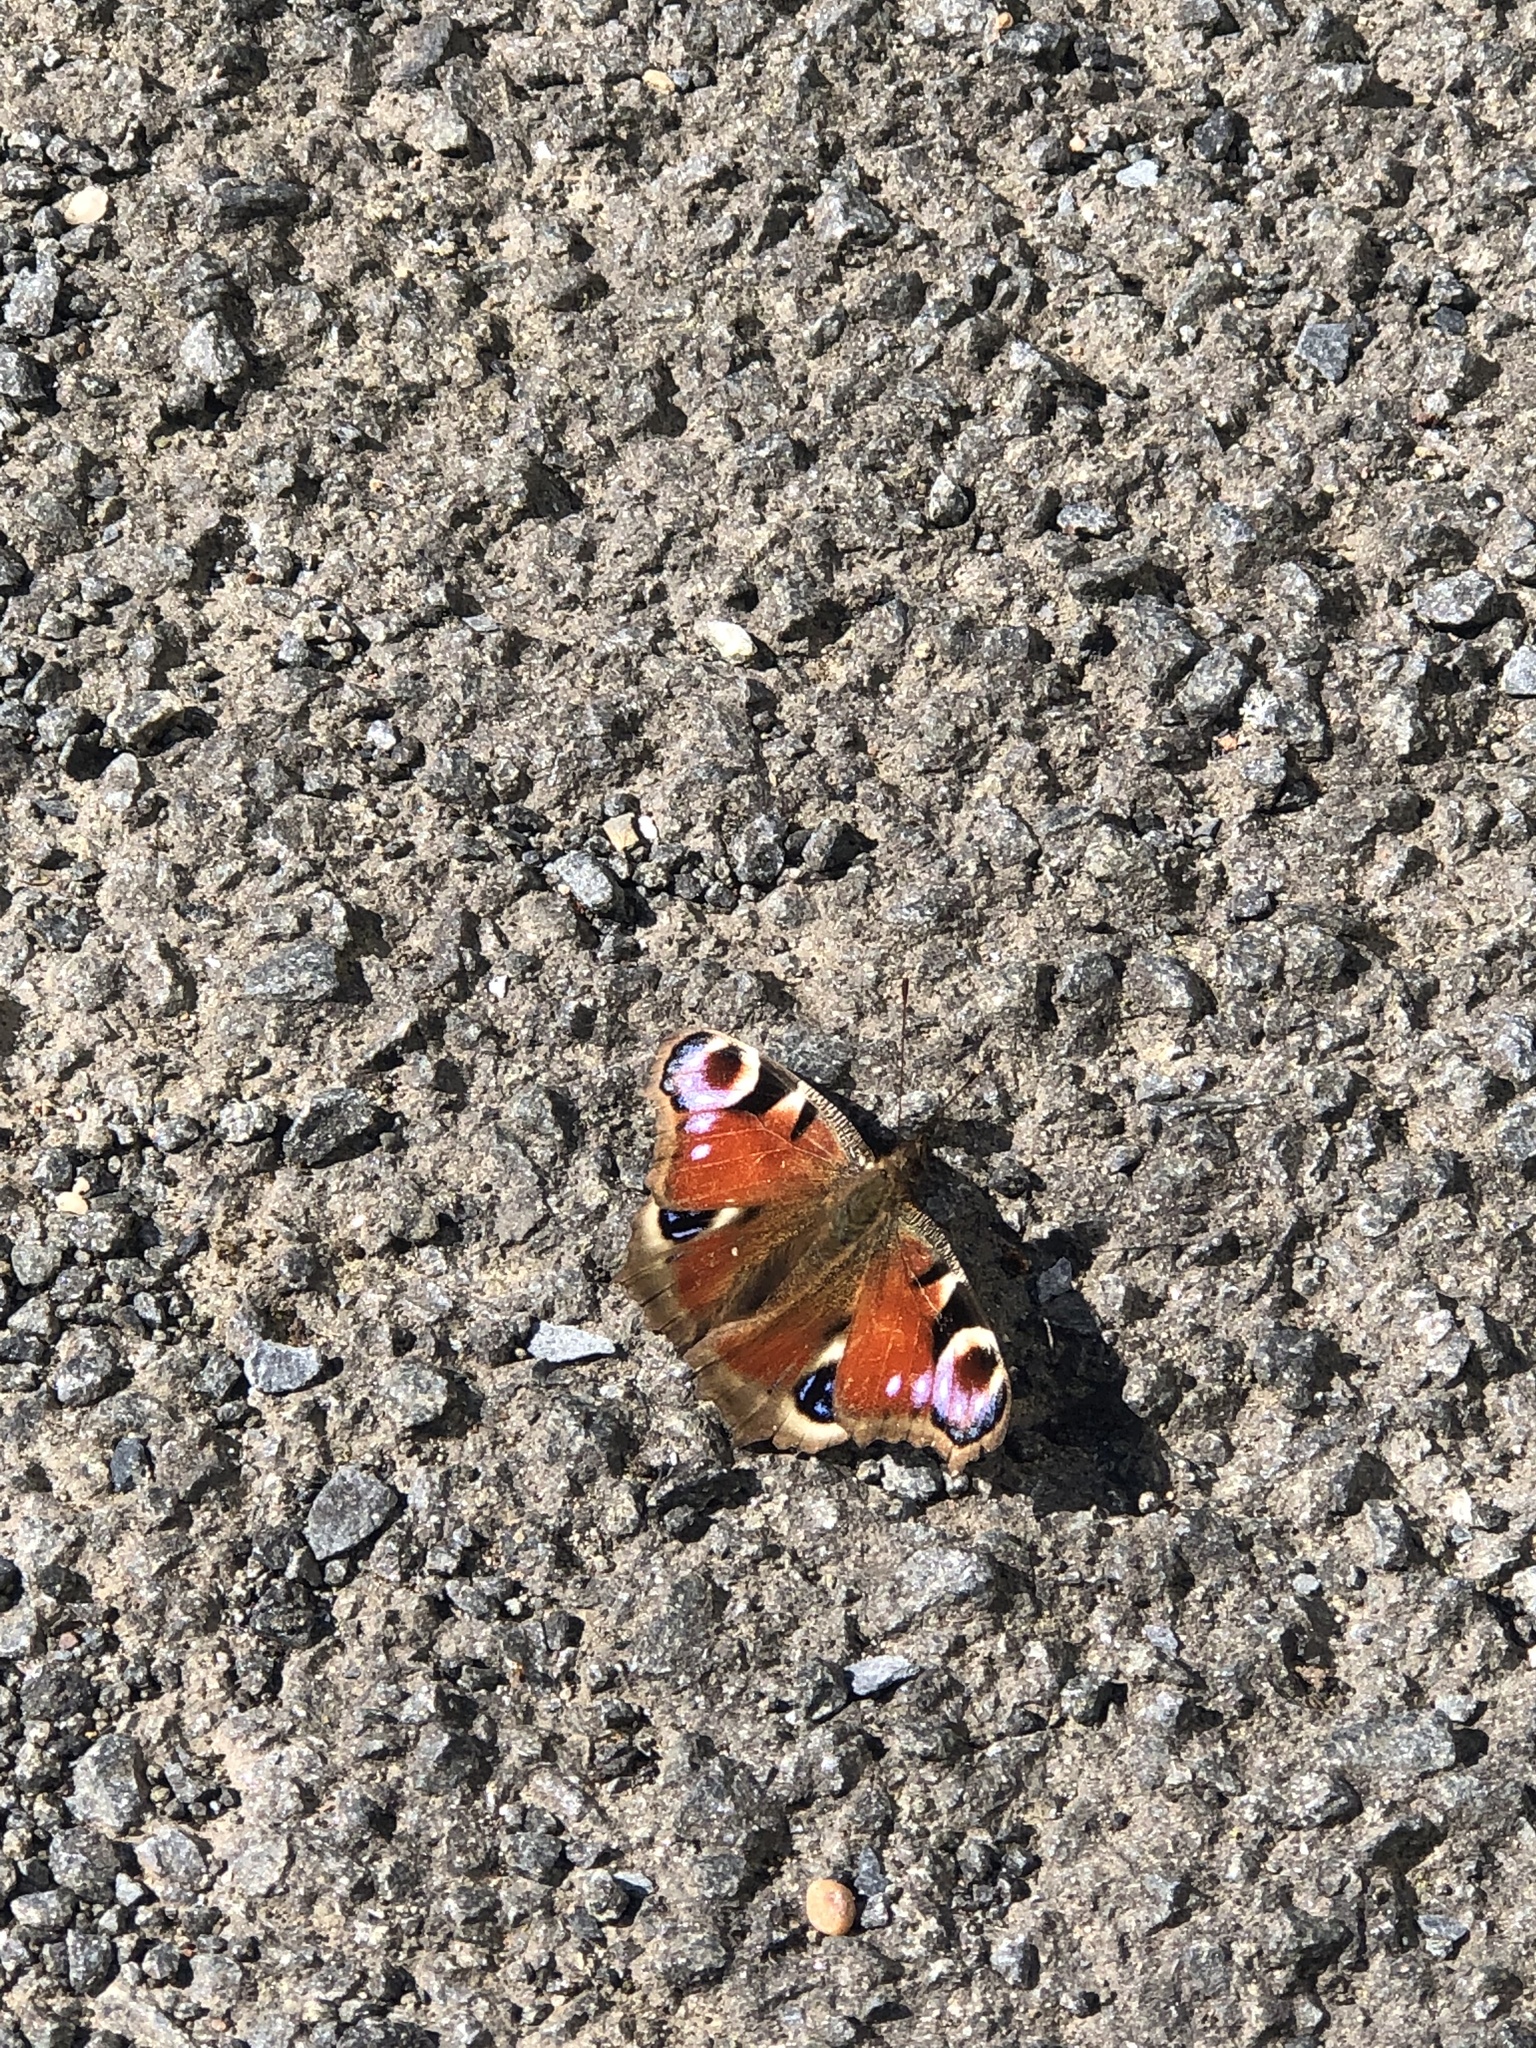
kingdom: Animalia
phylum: Arthropoda
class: Insecta
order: Lepidoptera
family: Nymphalidae
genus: Aglais
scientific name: Aglais io
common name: Peacock
